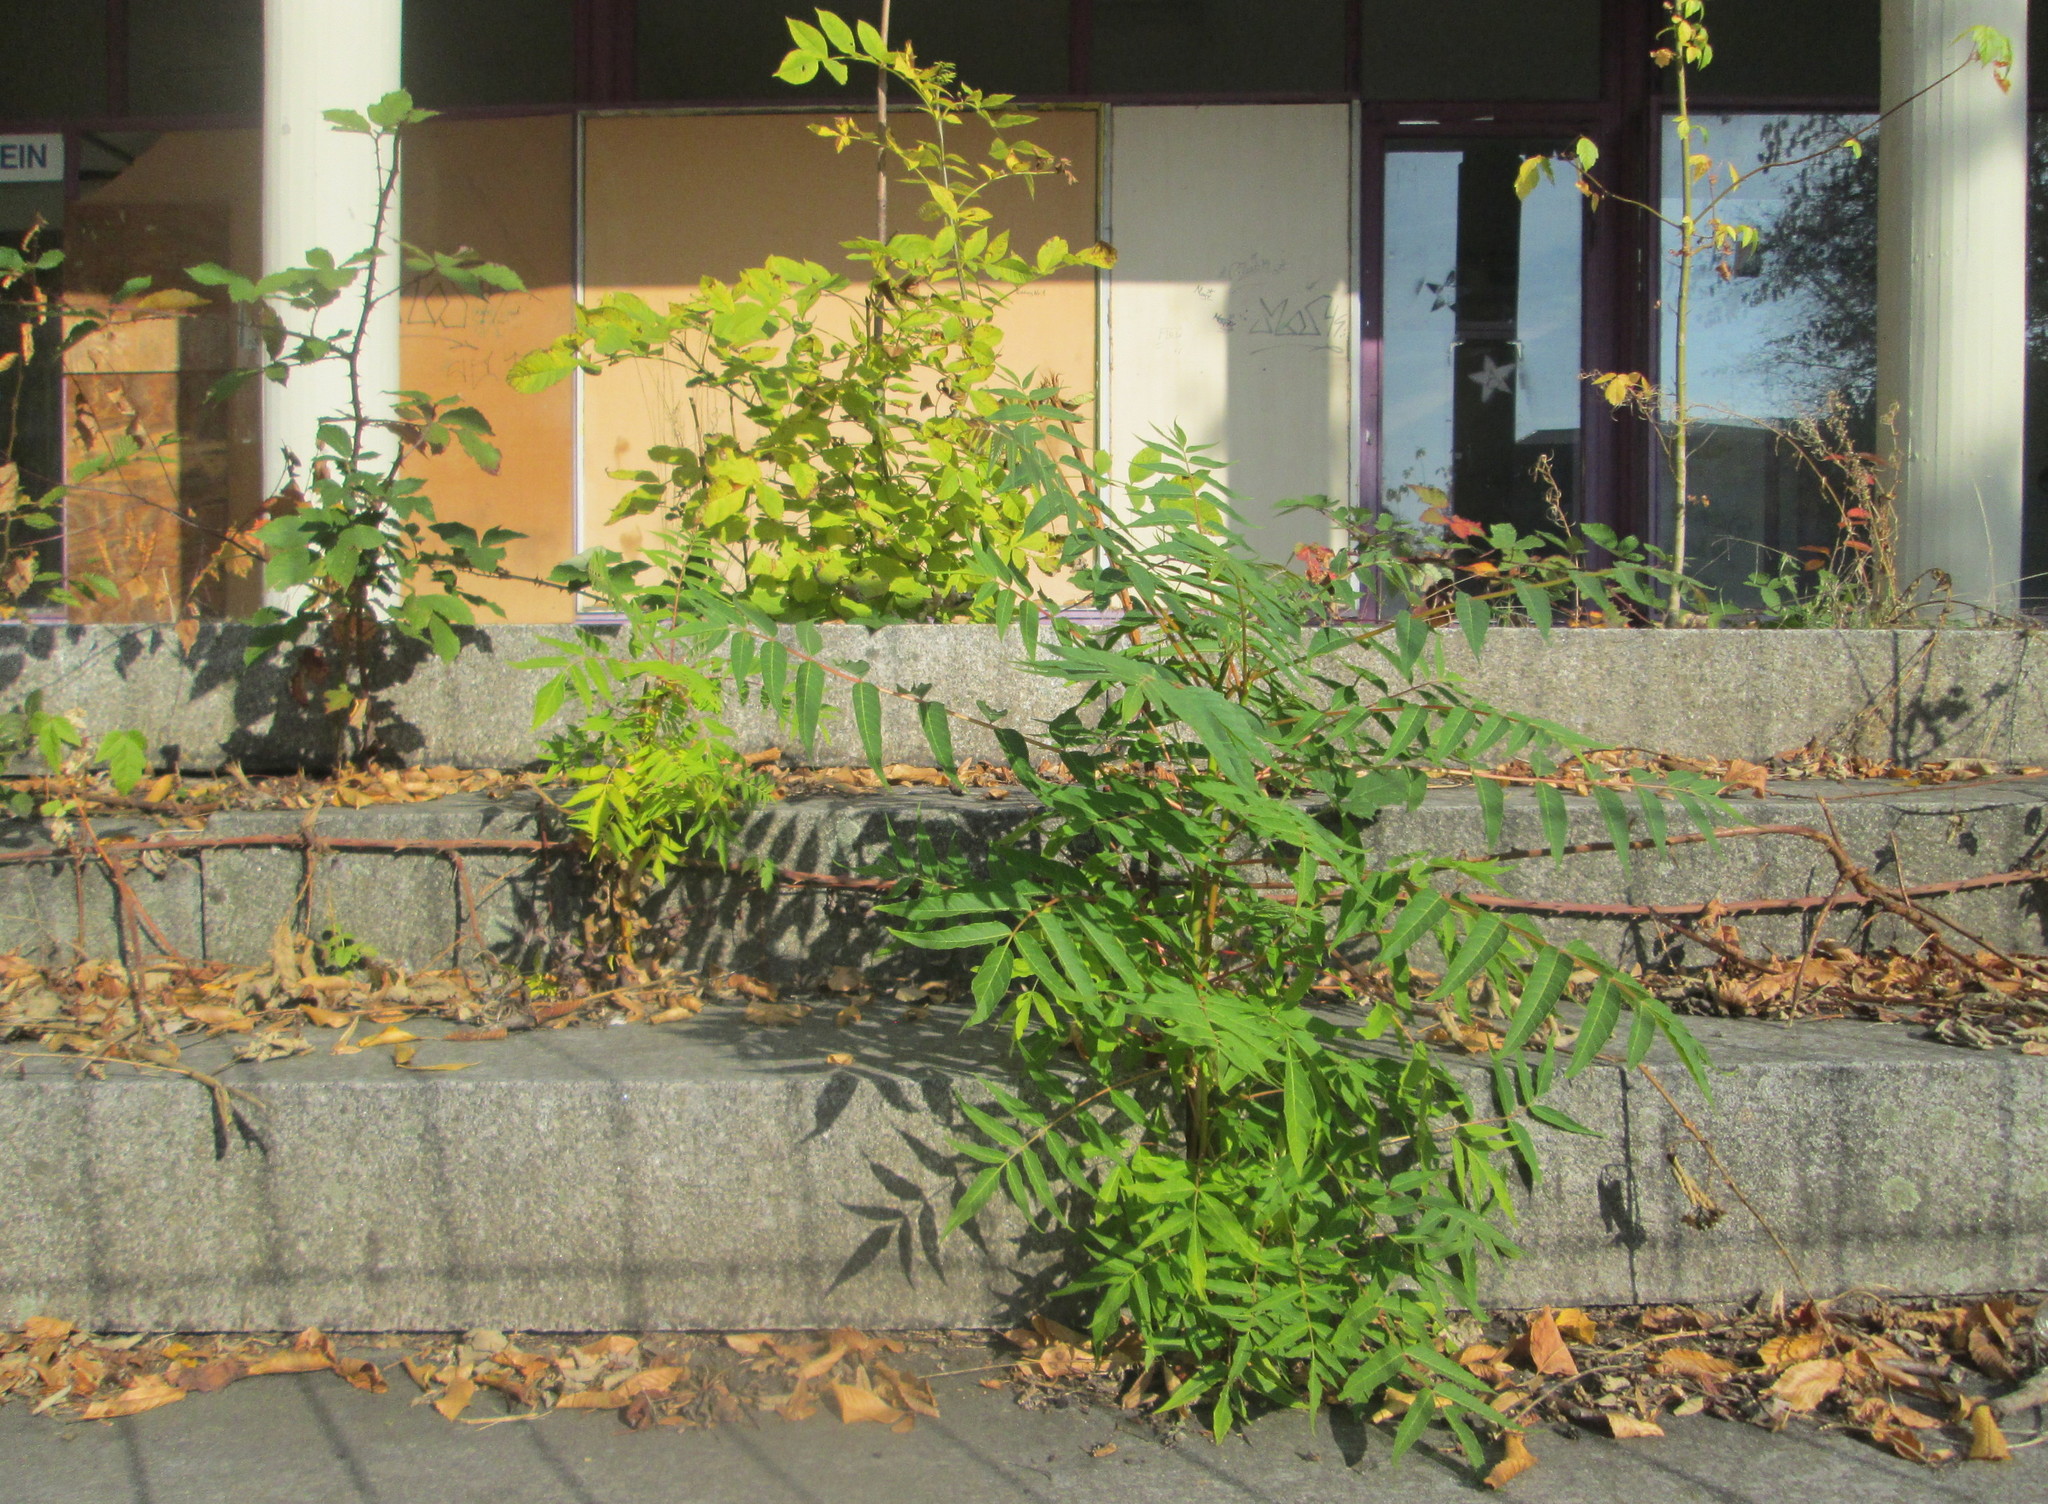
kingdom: Plantae
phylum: Tracheophyta
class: Magnoliopsida
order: Sapindales
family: Simaroubaceae
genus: Ailanthus
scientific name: Ailanthus altissima
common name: Tree-of-heaven
